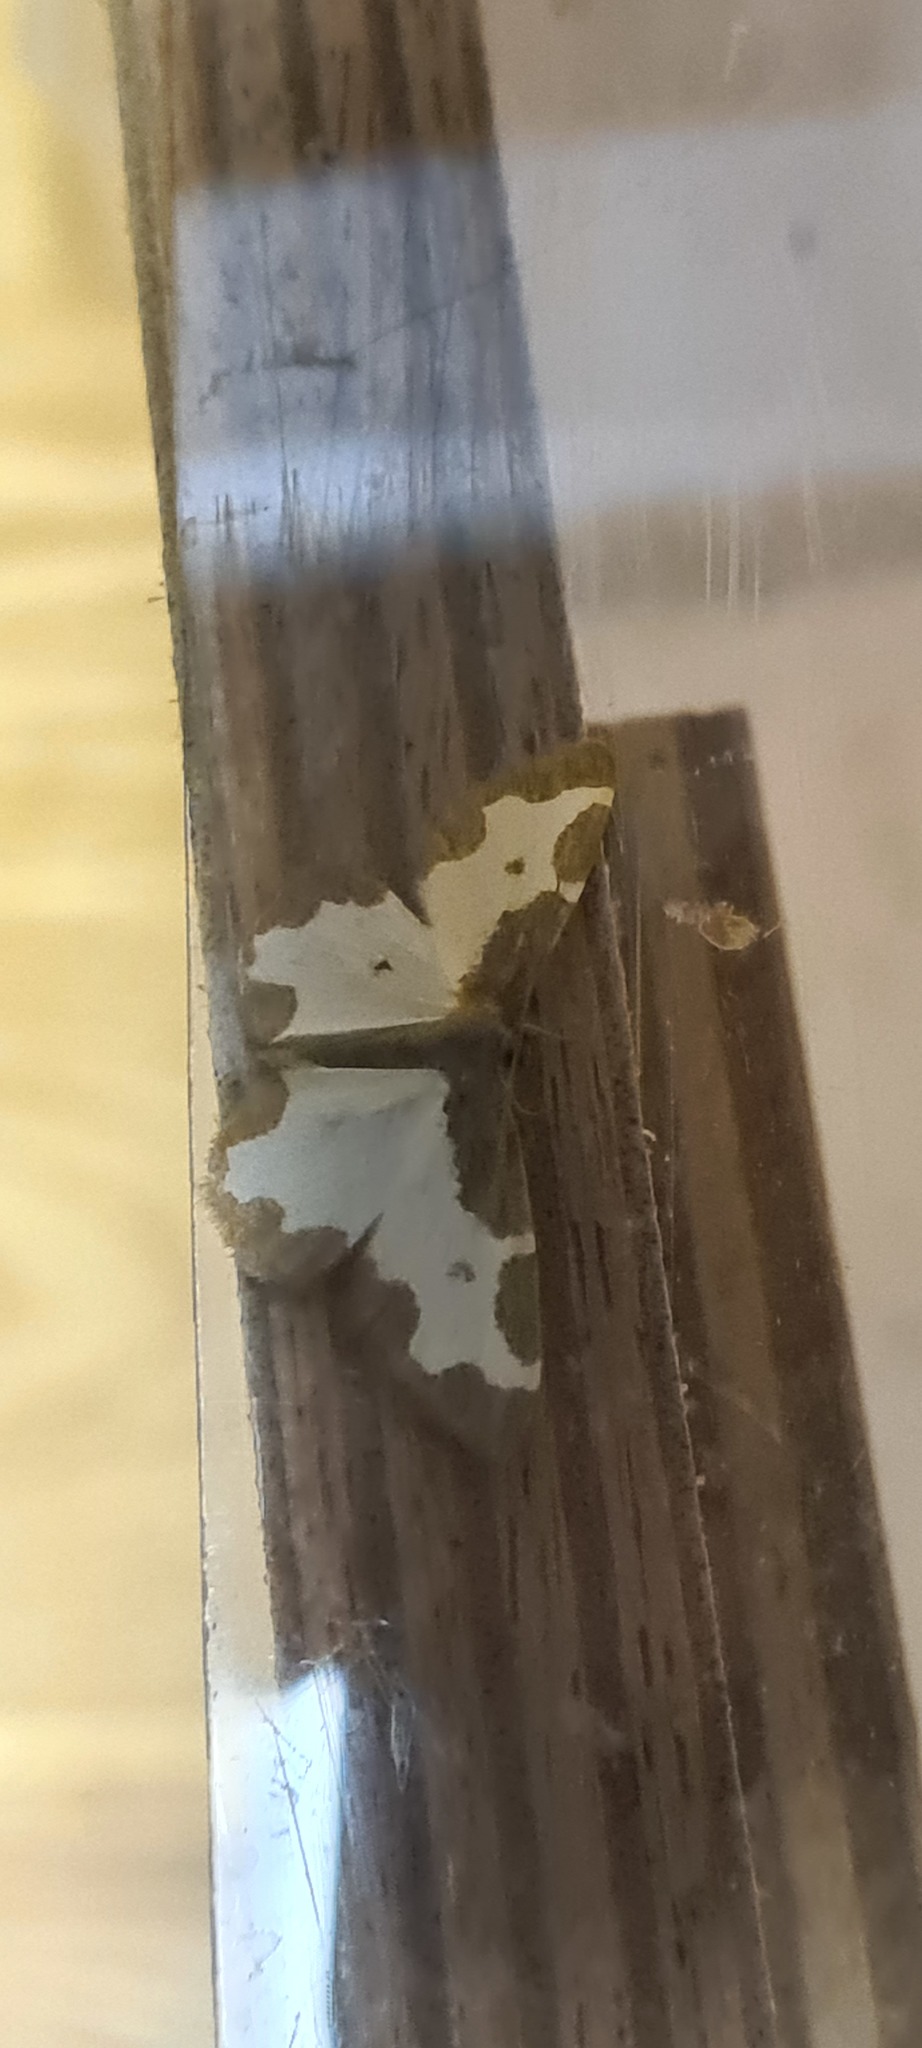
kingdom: Animalia
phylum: Arthropoda
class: Insecta
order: Lepidoptera
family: Geometridae
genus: Lomaspilis
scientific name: Lomaspilis marginata
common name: Clouded border
